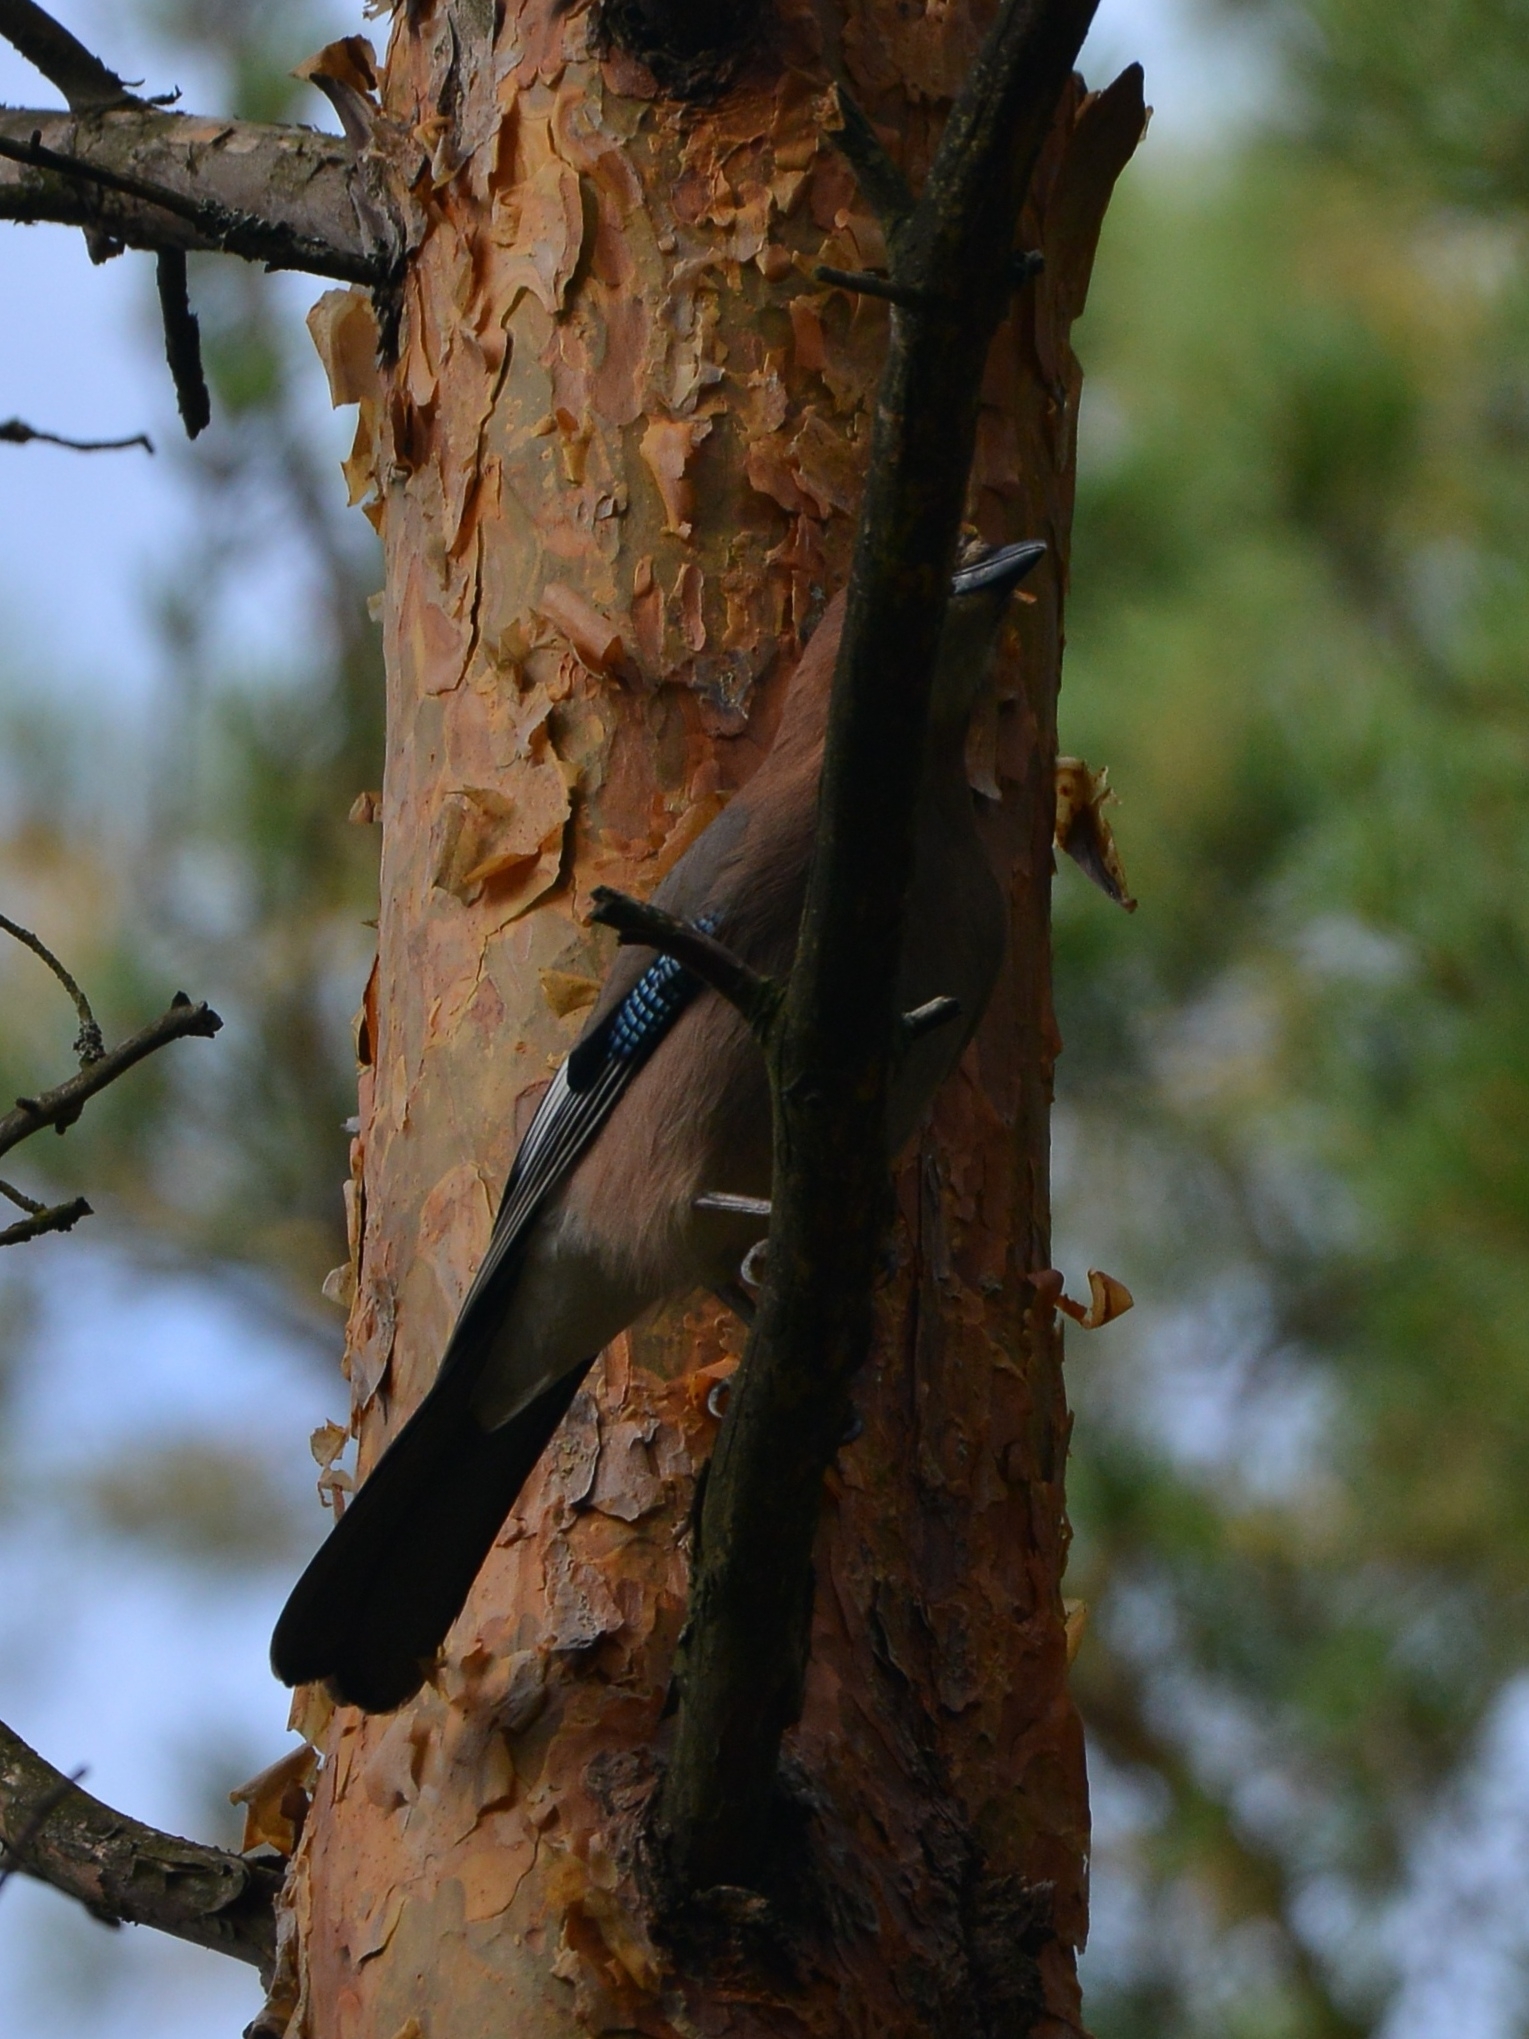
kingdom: Animalia
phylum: Chordata
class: Aves
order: Passeriformes
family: Corvidae
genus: Garrulus
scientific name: Garrulus glandarius
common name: Eurasian jay
